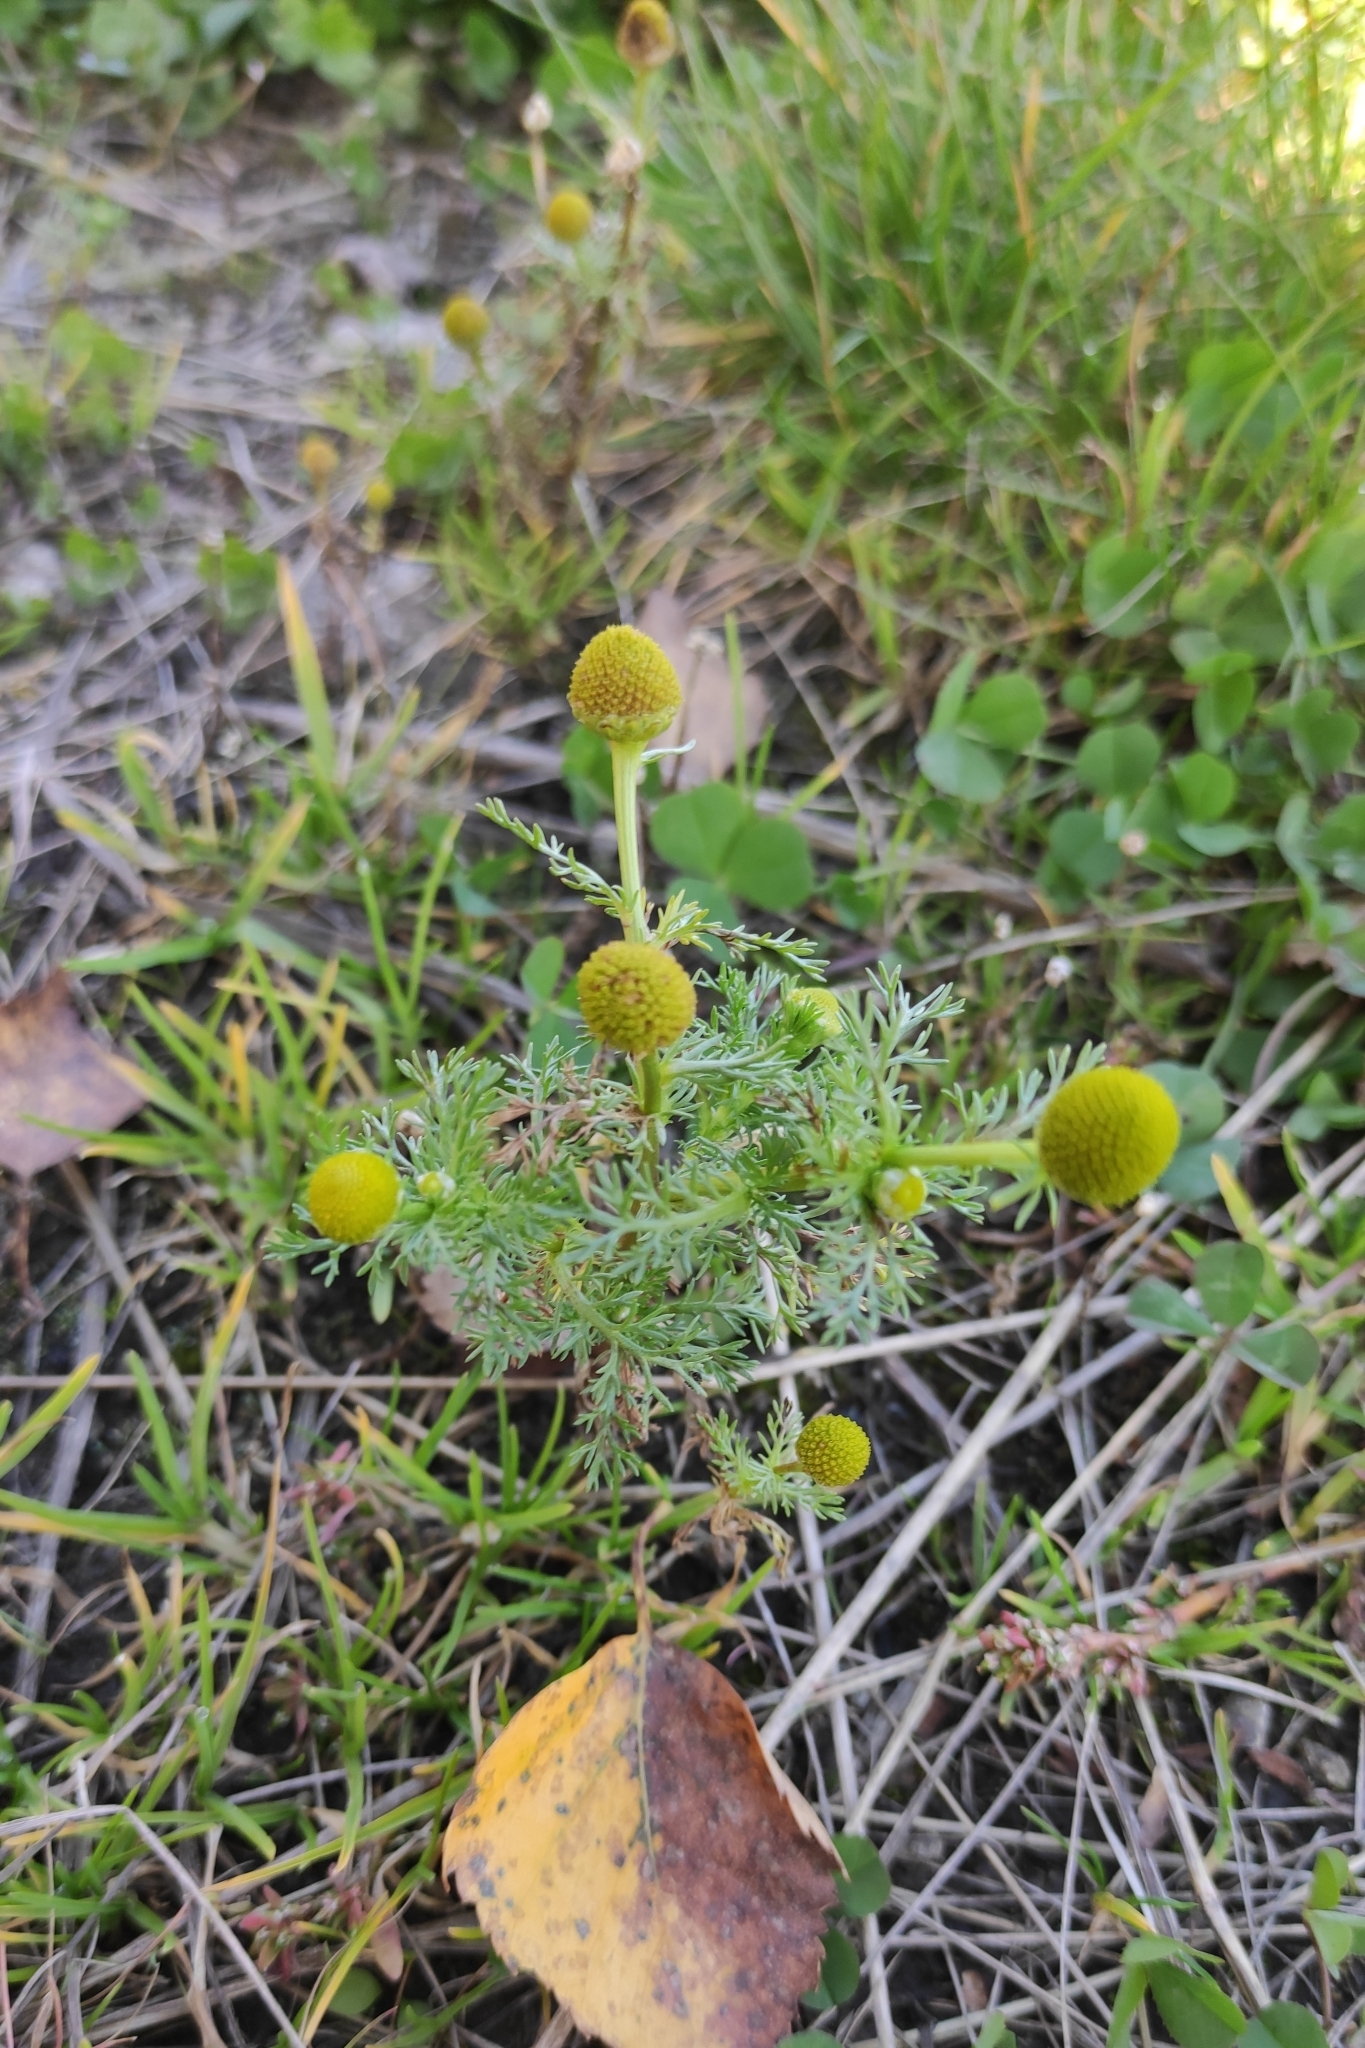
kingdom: Plantae
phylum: Tracheophyta
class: Magnoliopsida
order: Asterales
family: Asteraceae
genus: Matricaria
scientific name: Matricaria discoidea
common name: Disc mayweed
